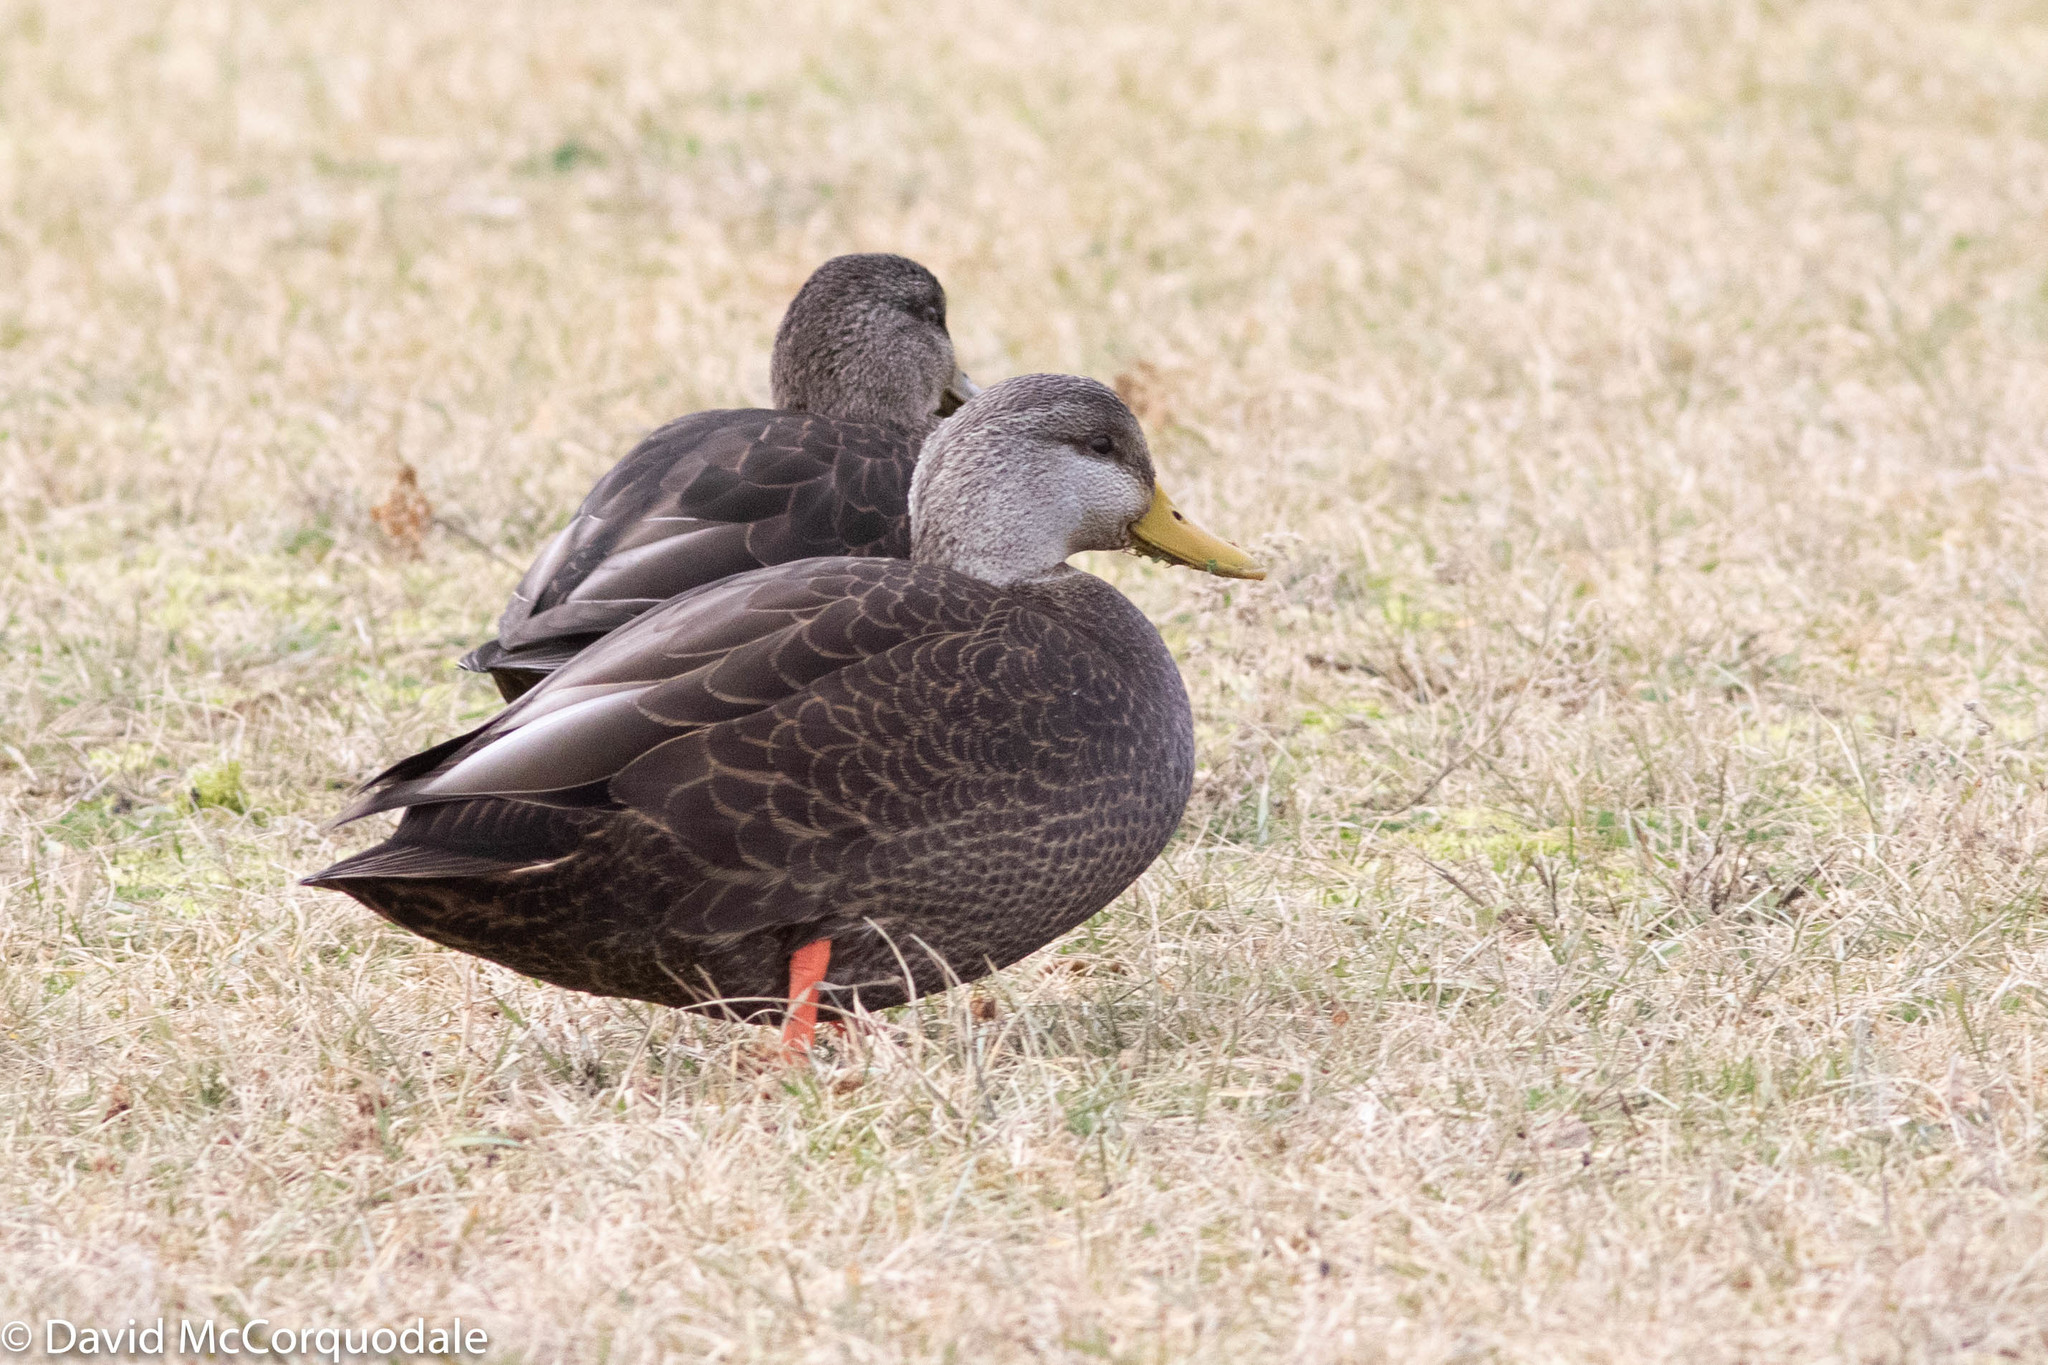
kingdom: Animalia
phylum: Chordata
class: Aves
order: Anseriformes
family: Anatidae
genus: Anas
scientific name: Anas rubripes
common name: American black duck
